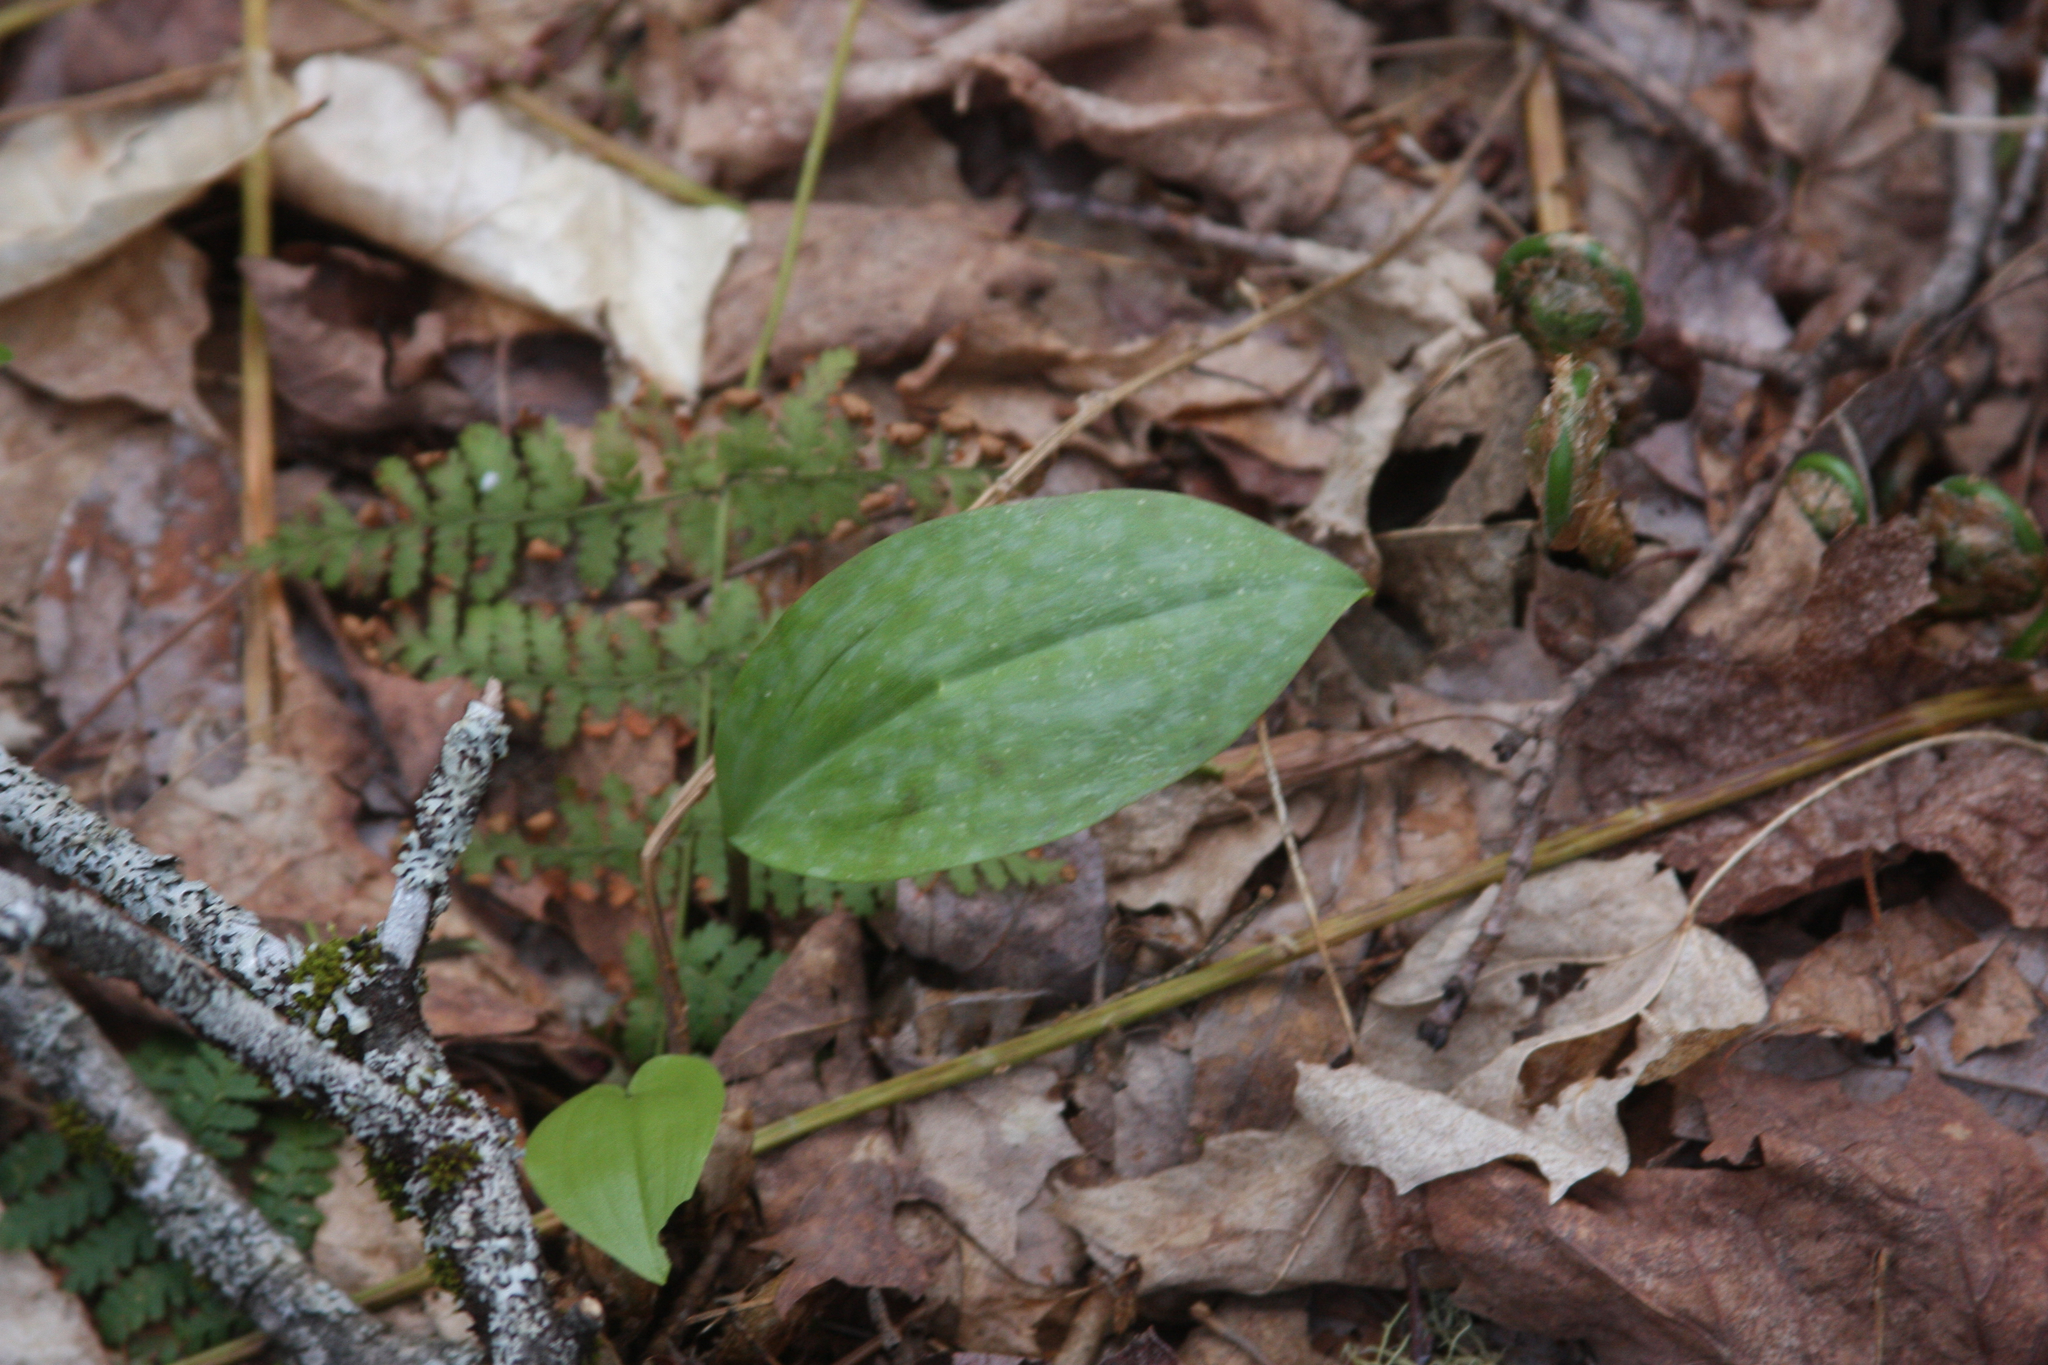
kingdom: Plantae
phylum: Tracheophyta
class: Liliopsida
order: Liliales
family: Liliaceae
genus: Erythronium
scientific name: Erythronium americanum
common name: Yellow adder's-tongue
